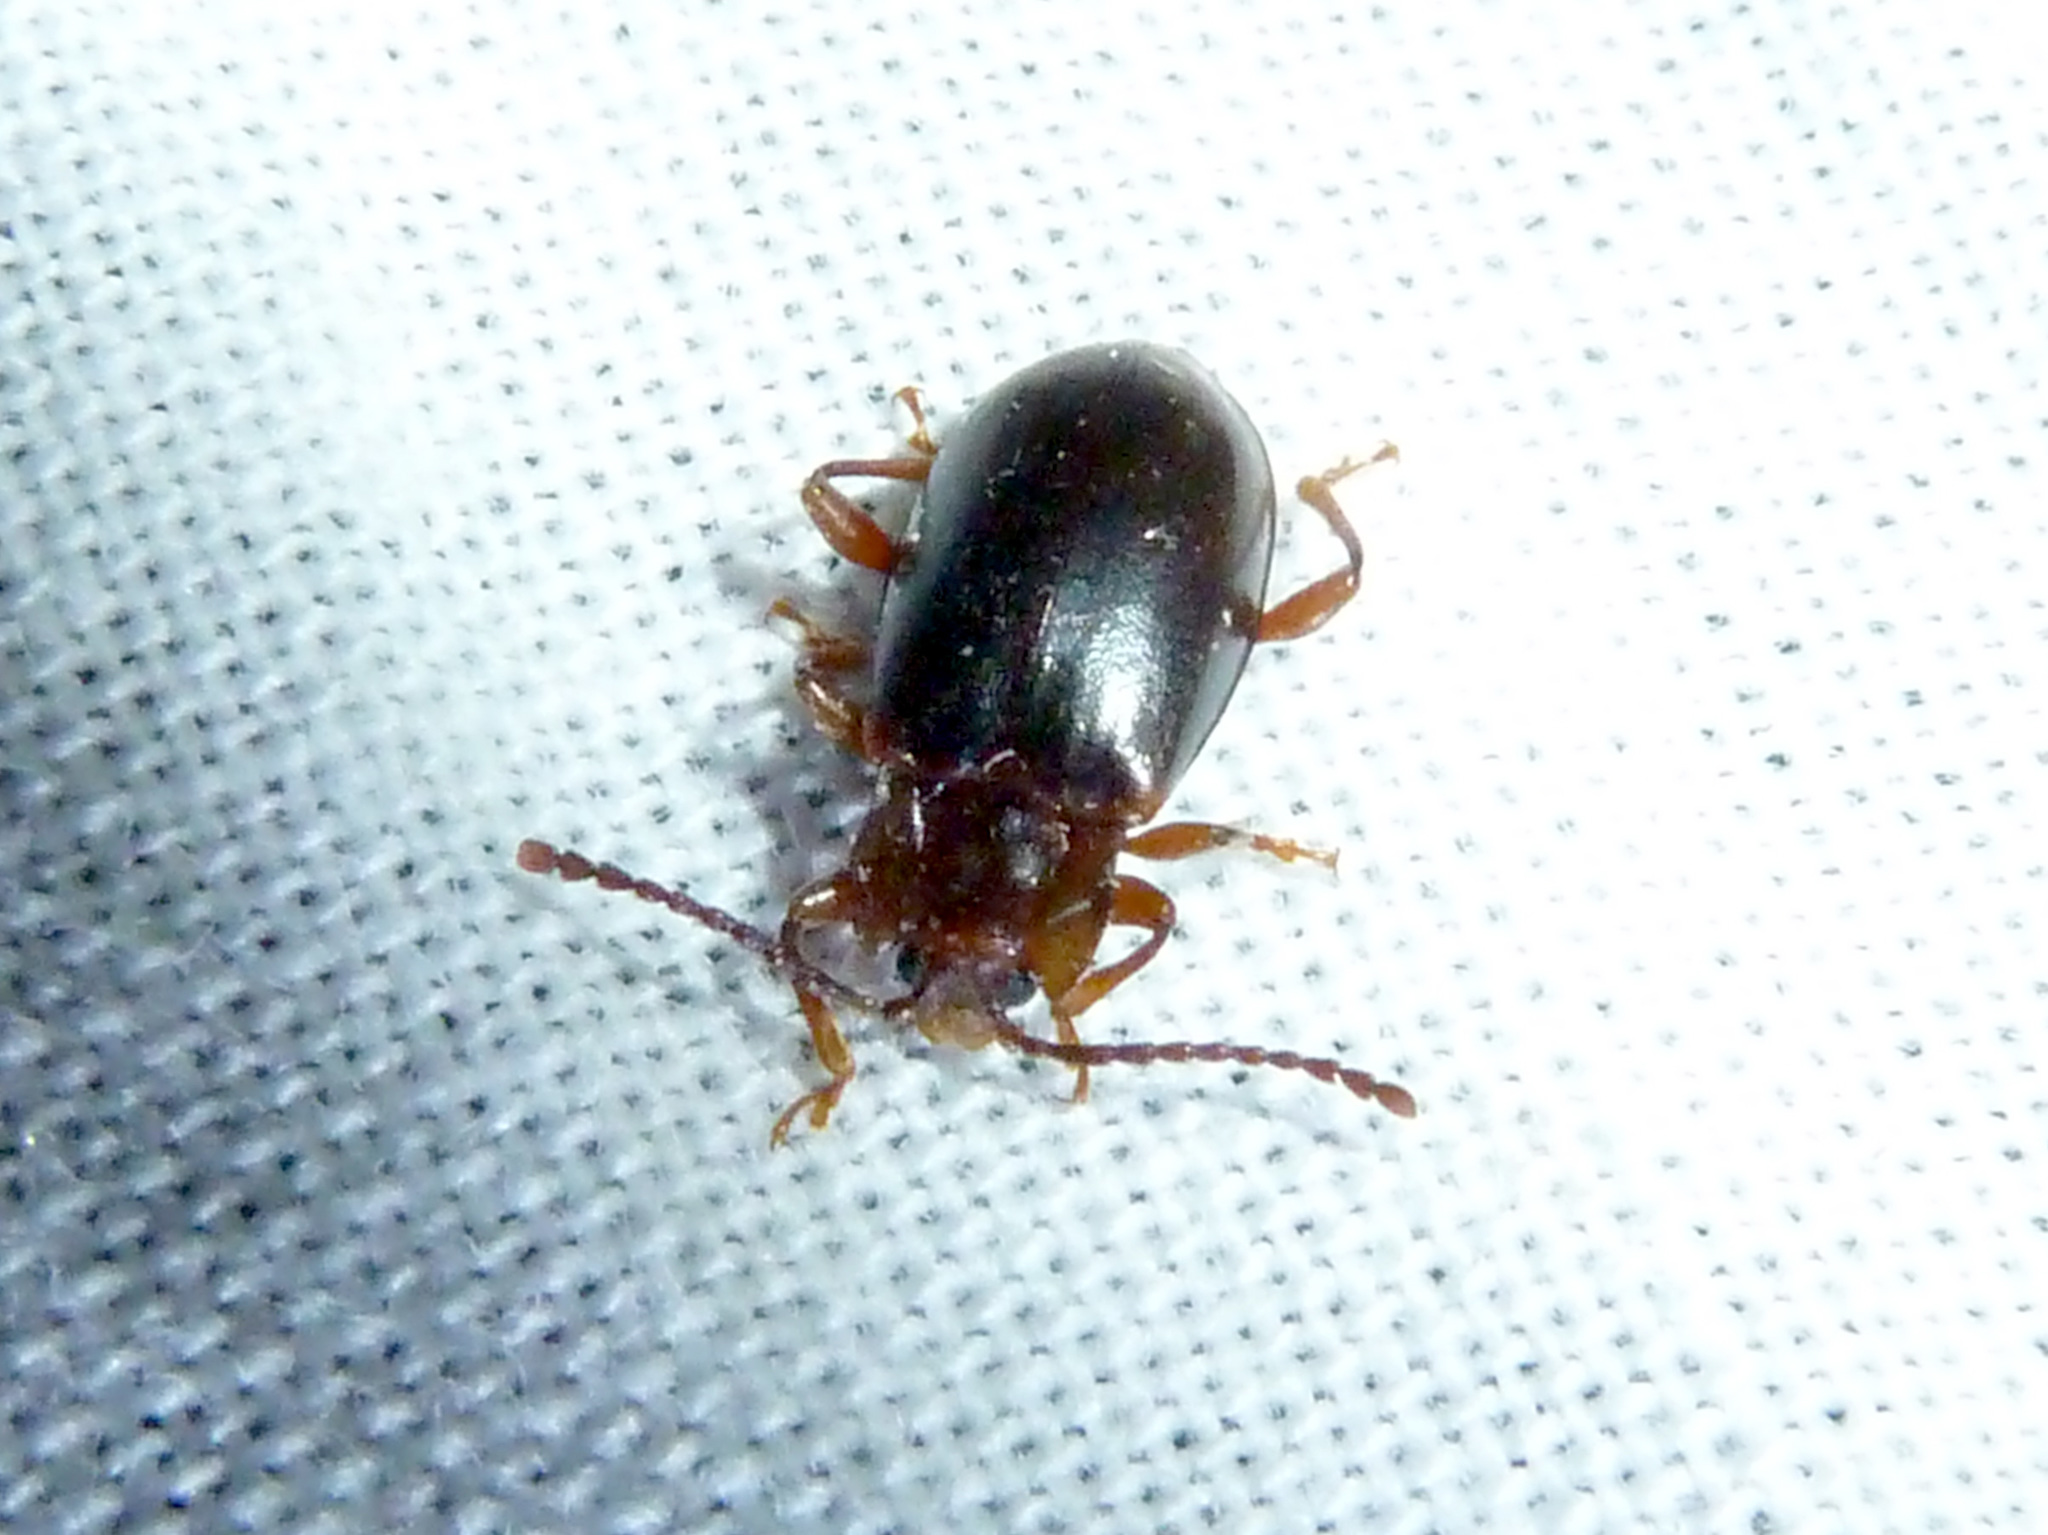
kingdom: Animalia
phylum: Arthropoda
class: Insecta
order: Coleoptera
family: Endomychidae
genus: Aphorista
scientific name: Aphorista morosa
